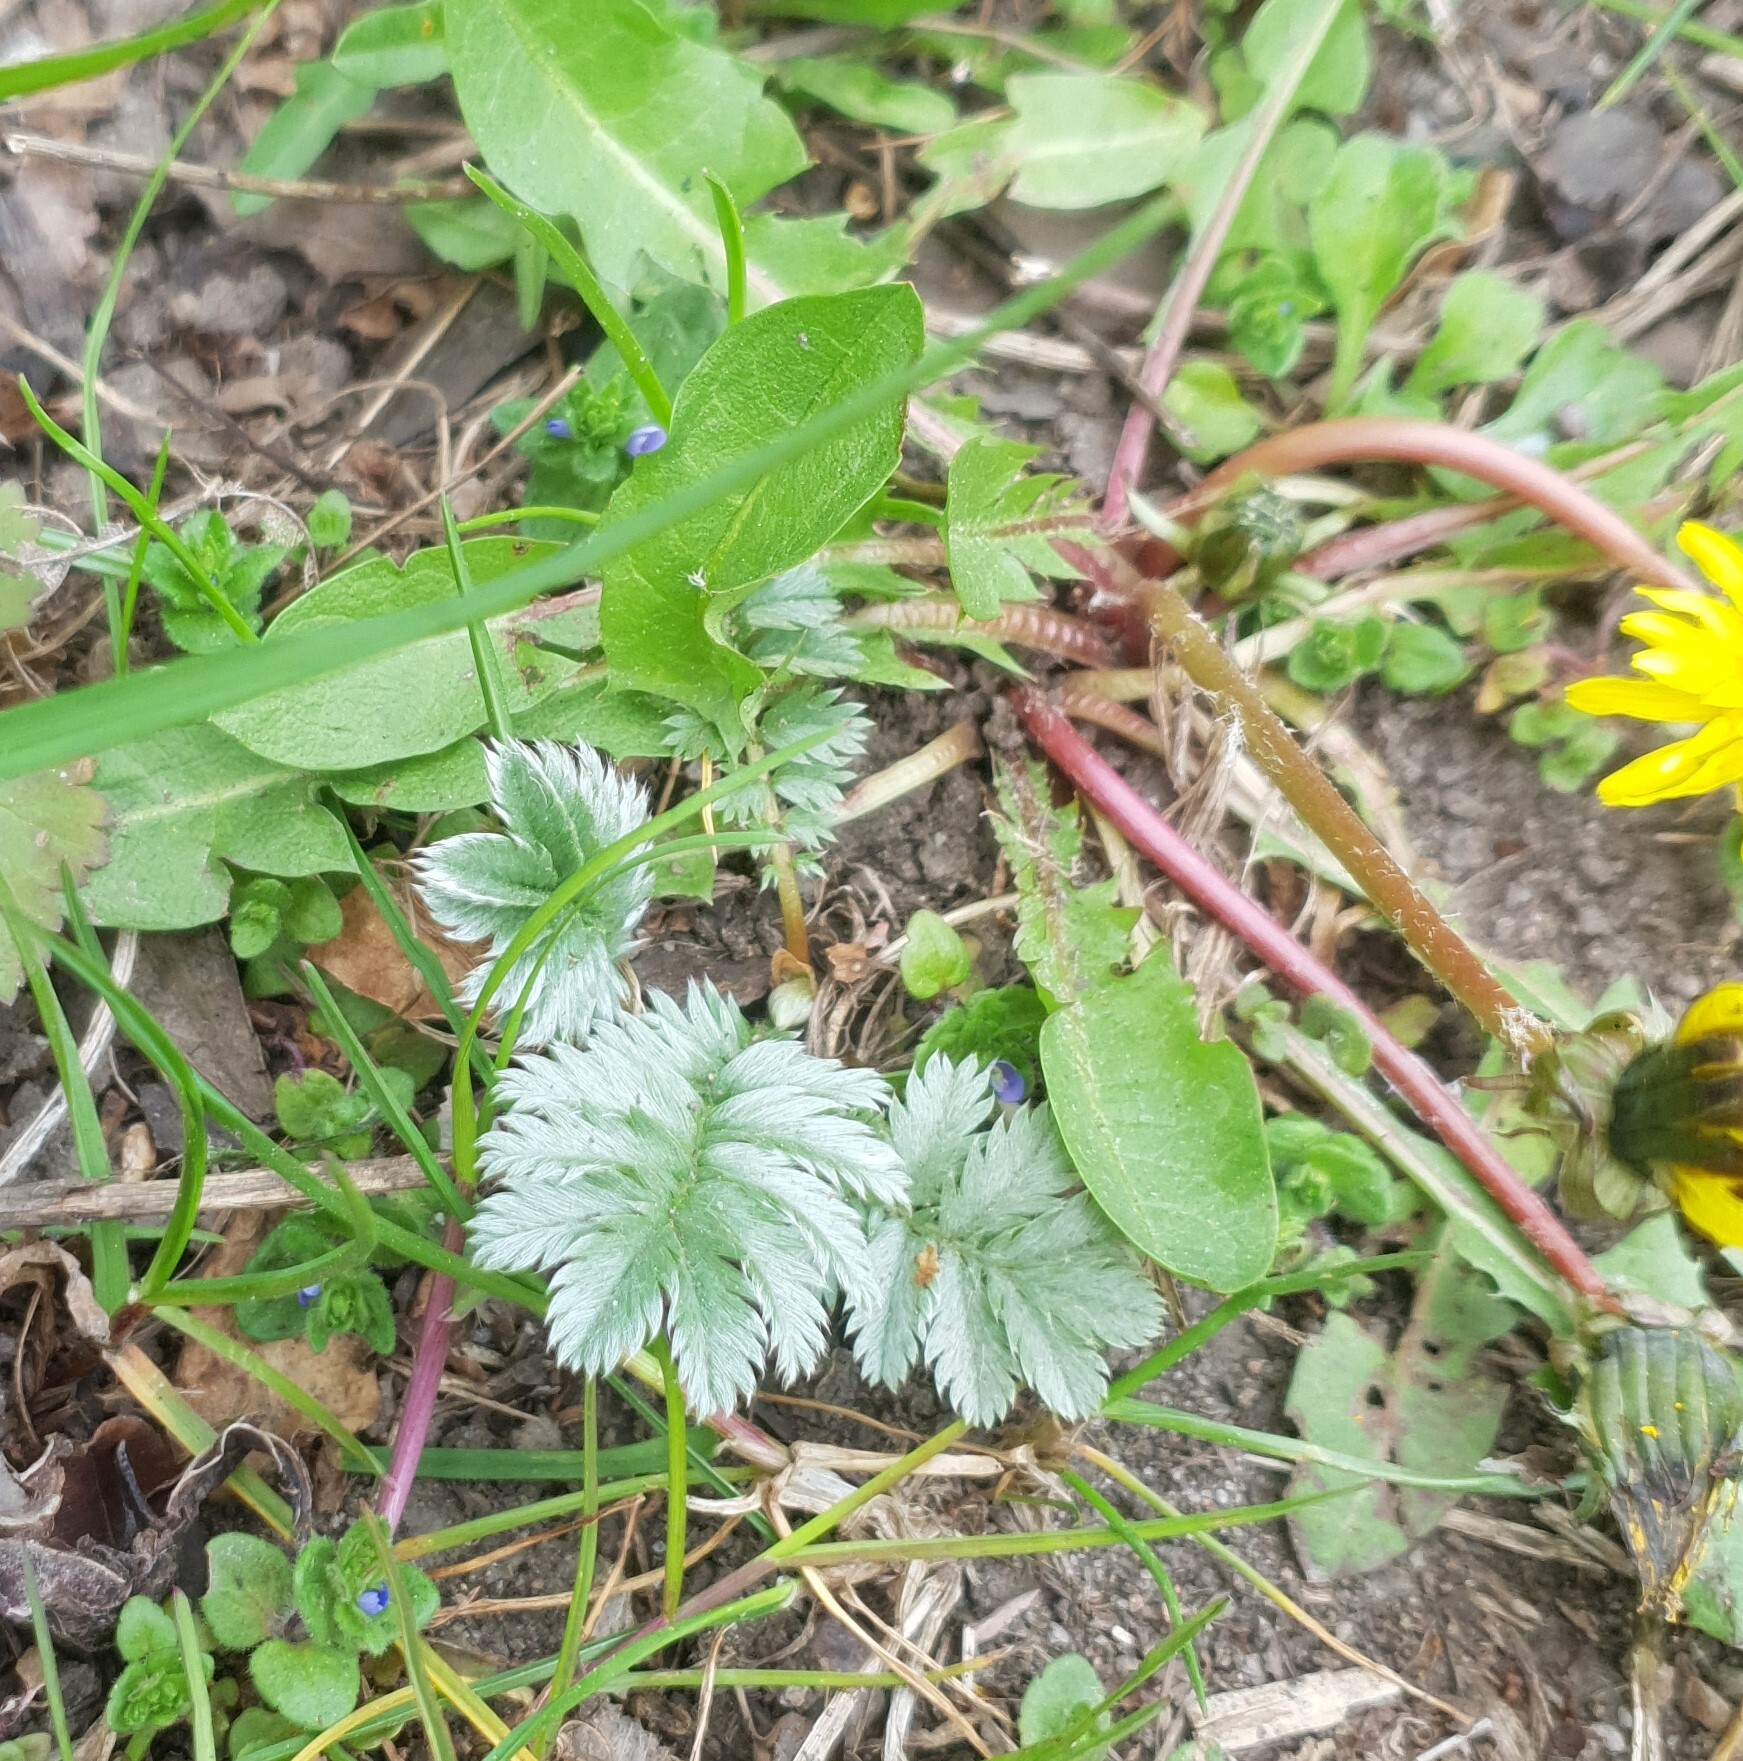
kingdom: Plantae
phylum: Tracheophyta
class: Magnoliopsida
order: Rosales
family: Rosaceae
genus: Argentina
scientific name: Argentina anserina
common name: Common silverweed
